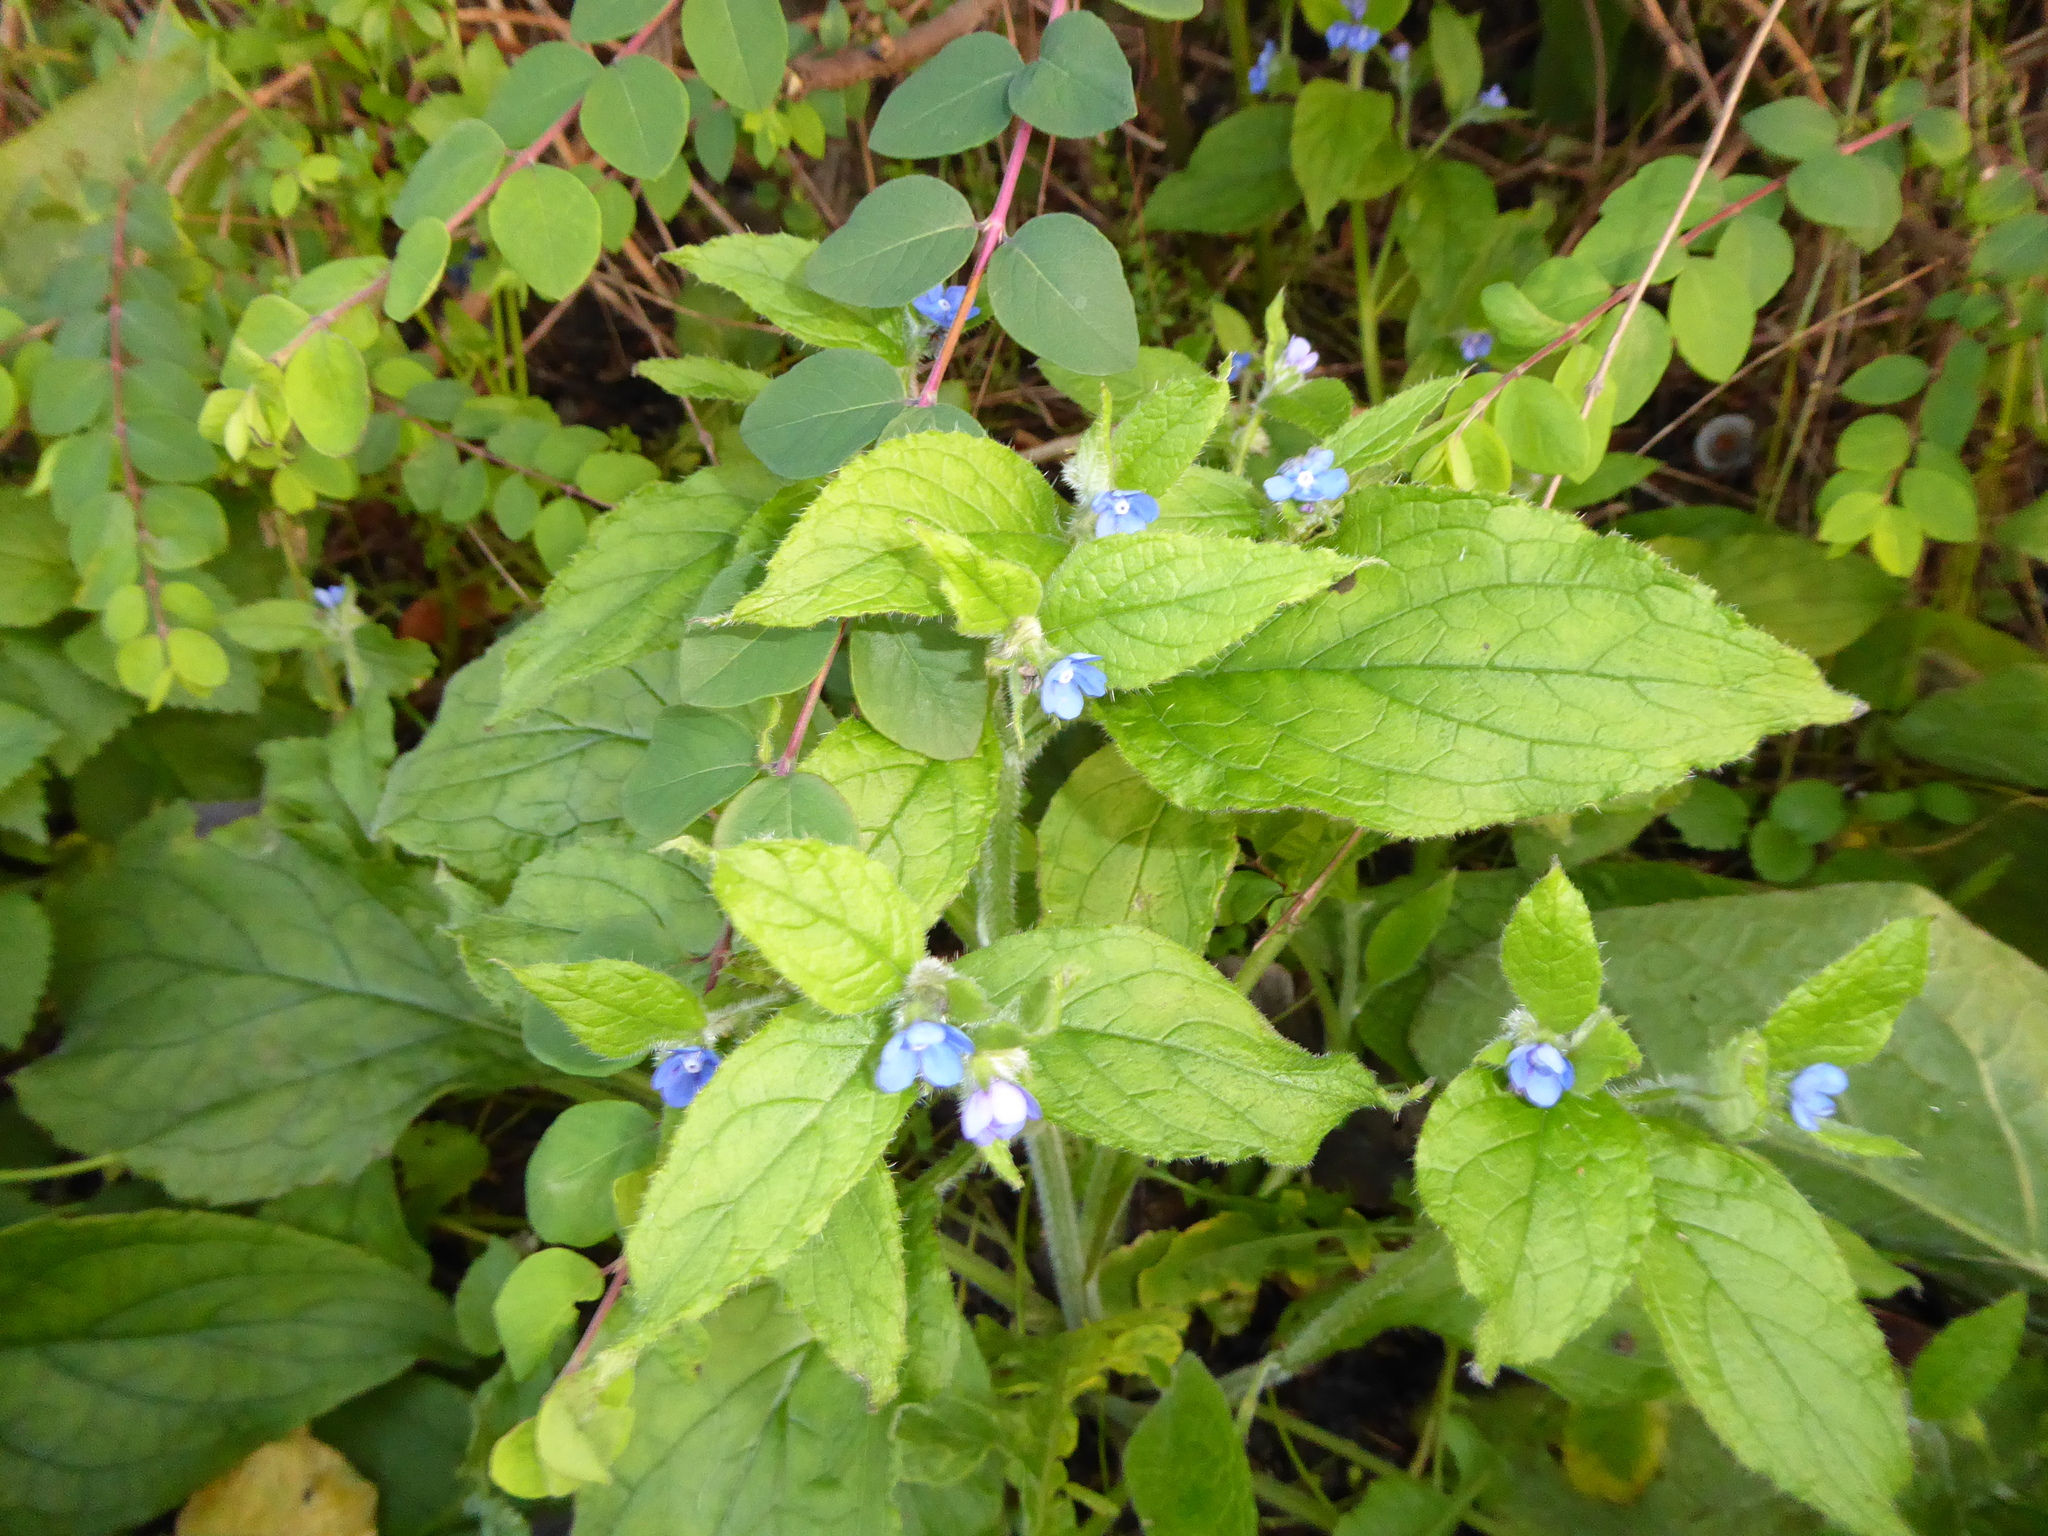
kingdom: Plantae
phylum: Tracheophyta
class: Magnoliopsida
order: Boraginales
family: Boraginaceae
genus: Pentaglottis
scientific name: Pentaglottis sempervirens
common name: Green alkanet
